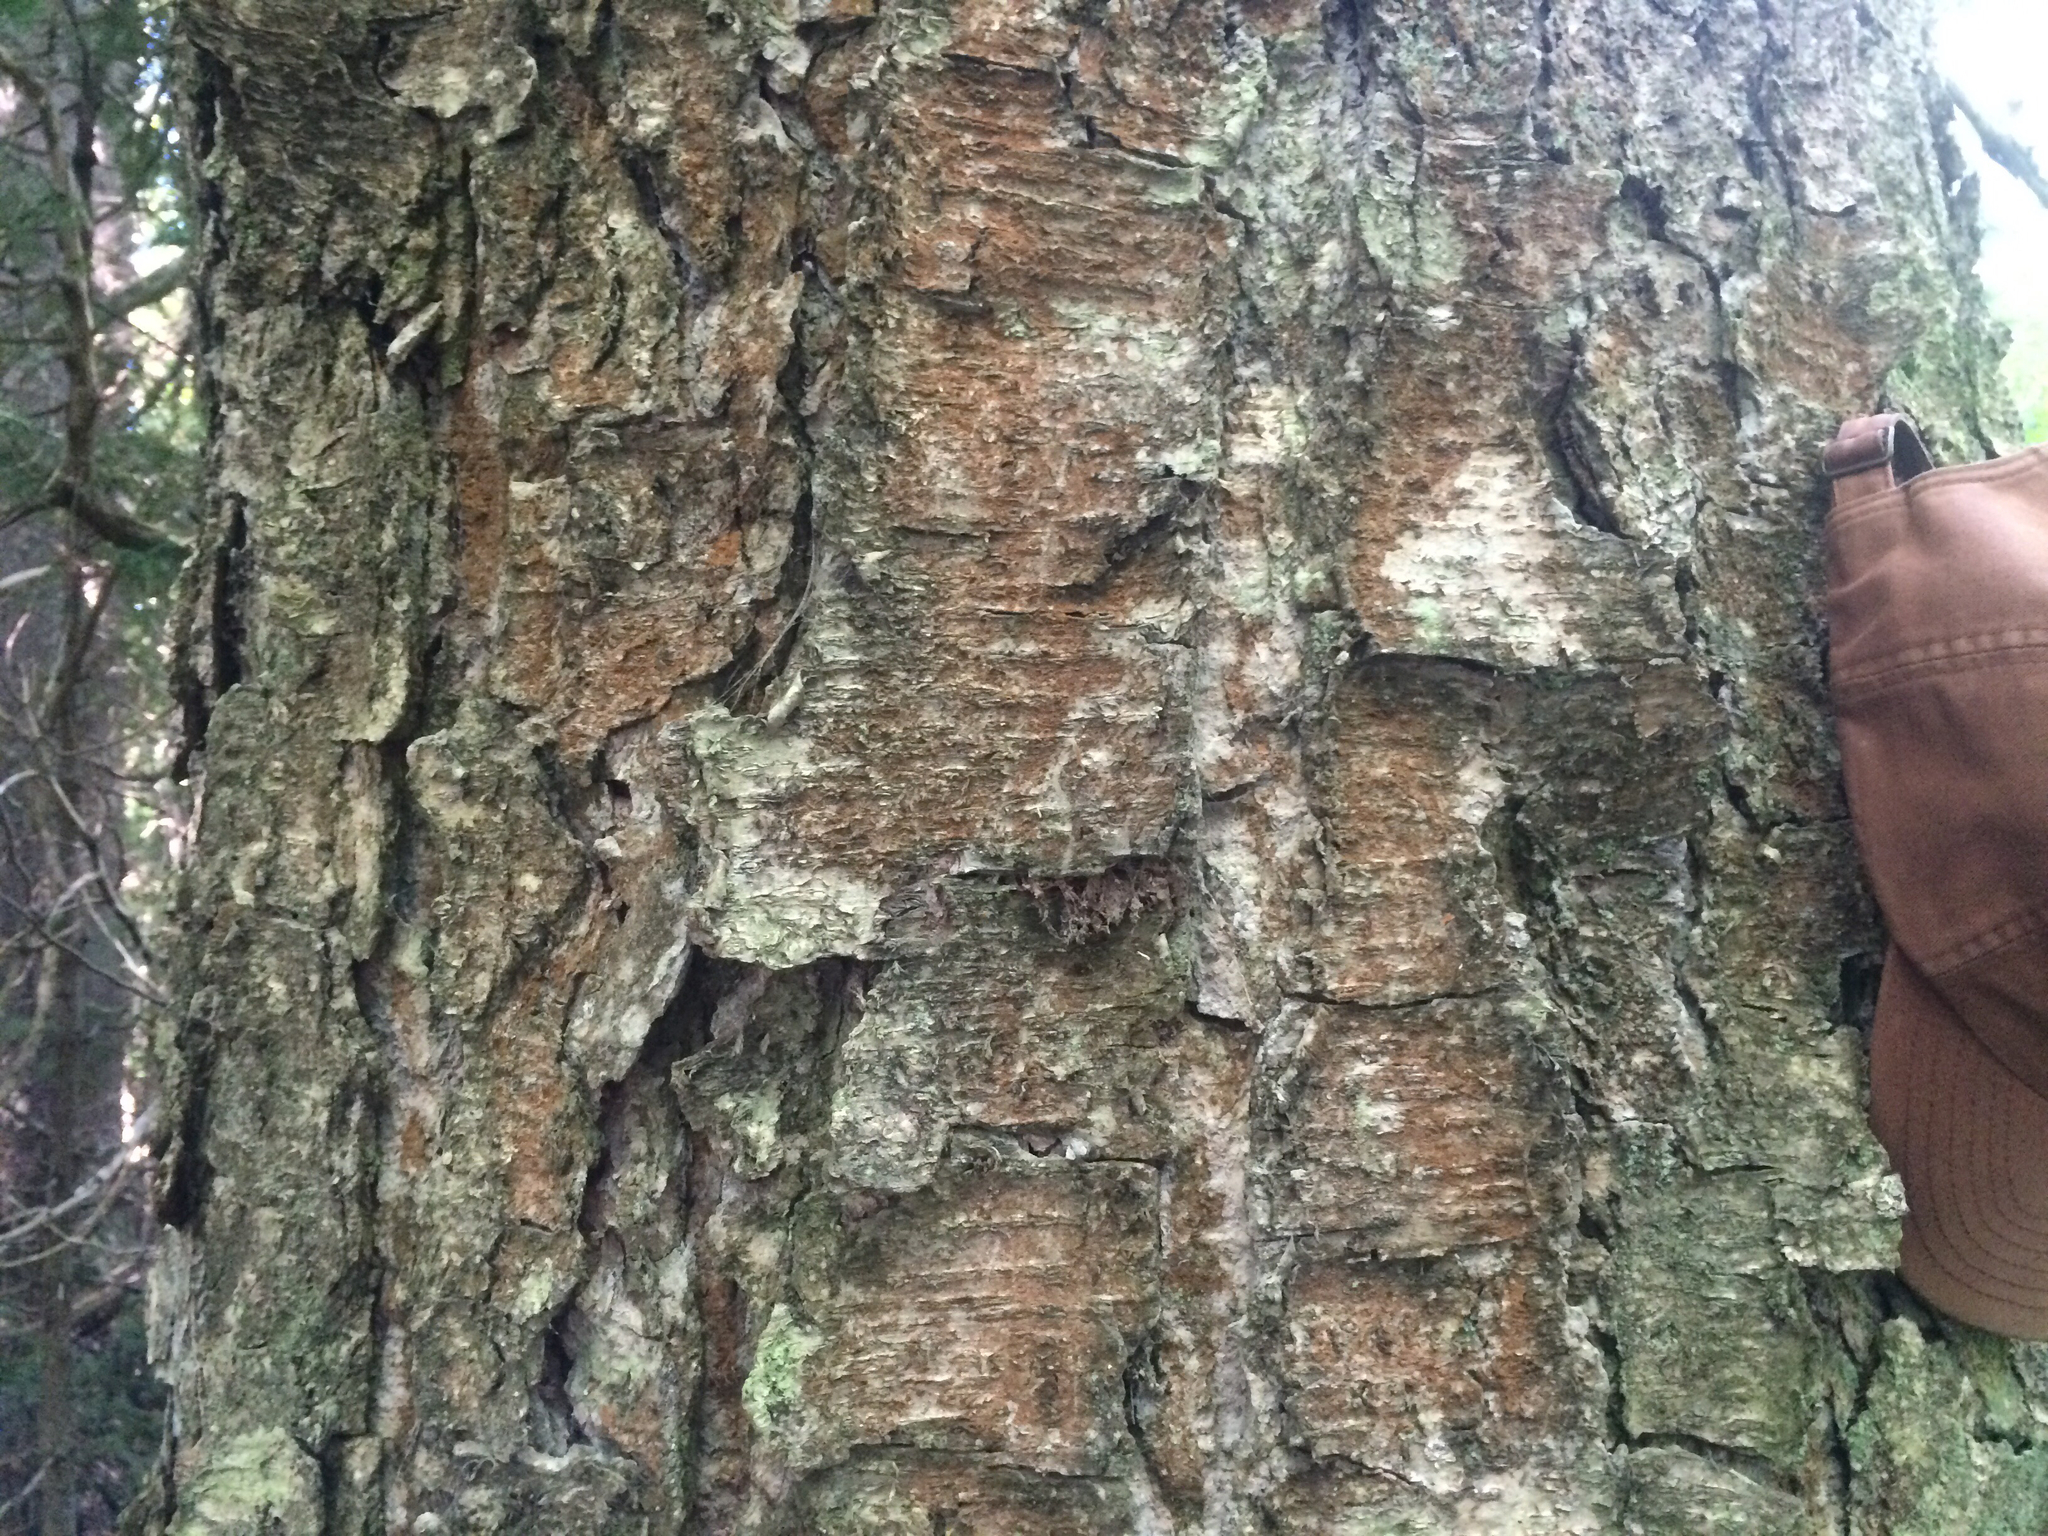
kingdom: Plantae
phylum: Tracheophyta
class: Magnoliopsida
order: Fagales
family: Betulaceae
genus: Betula
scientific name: Betula alleghaniensis
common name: Yellow birch
